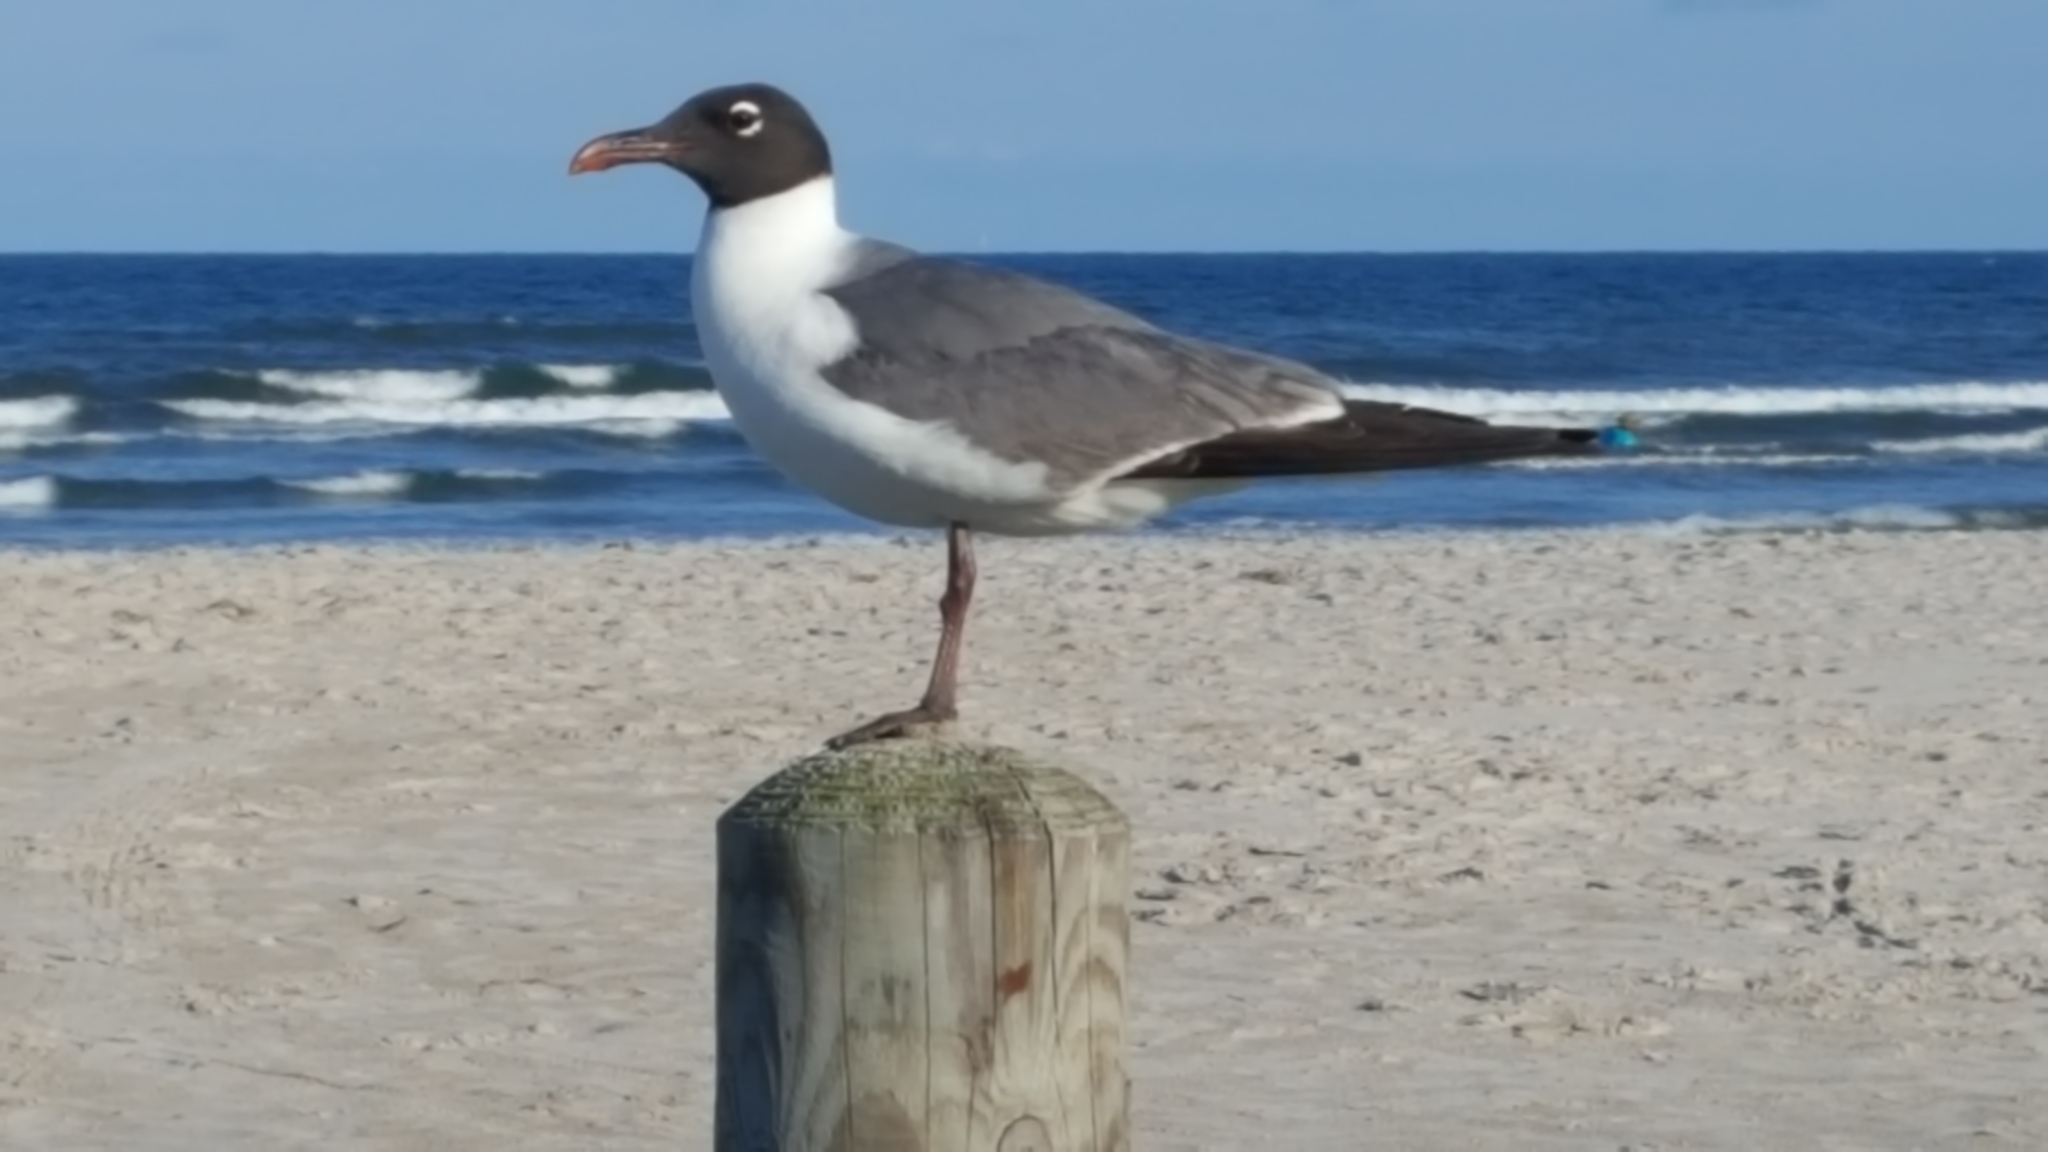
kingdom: Animalia
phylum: Chordata
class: Aves
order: Charadriiformes
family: Laridae
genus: Leucophaeus
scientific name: Leucophaeus atricilla
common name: Laughing gull
